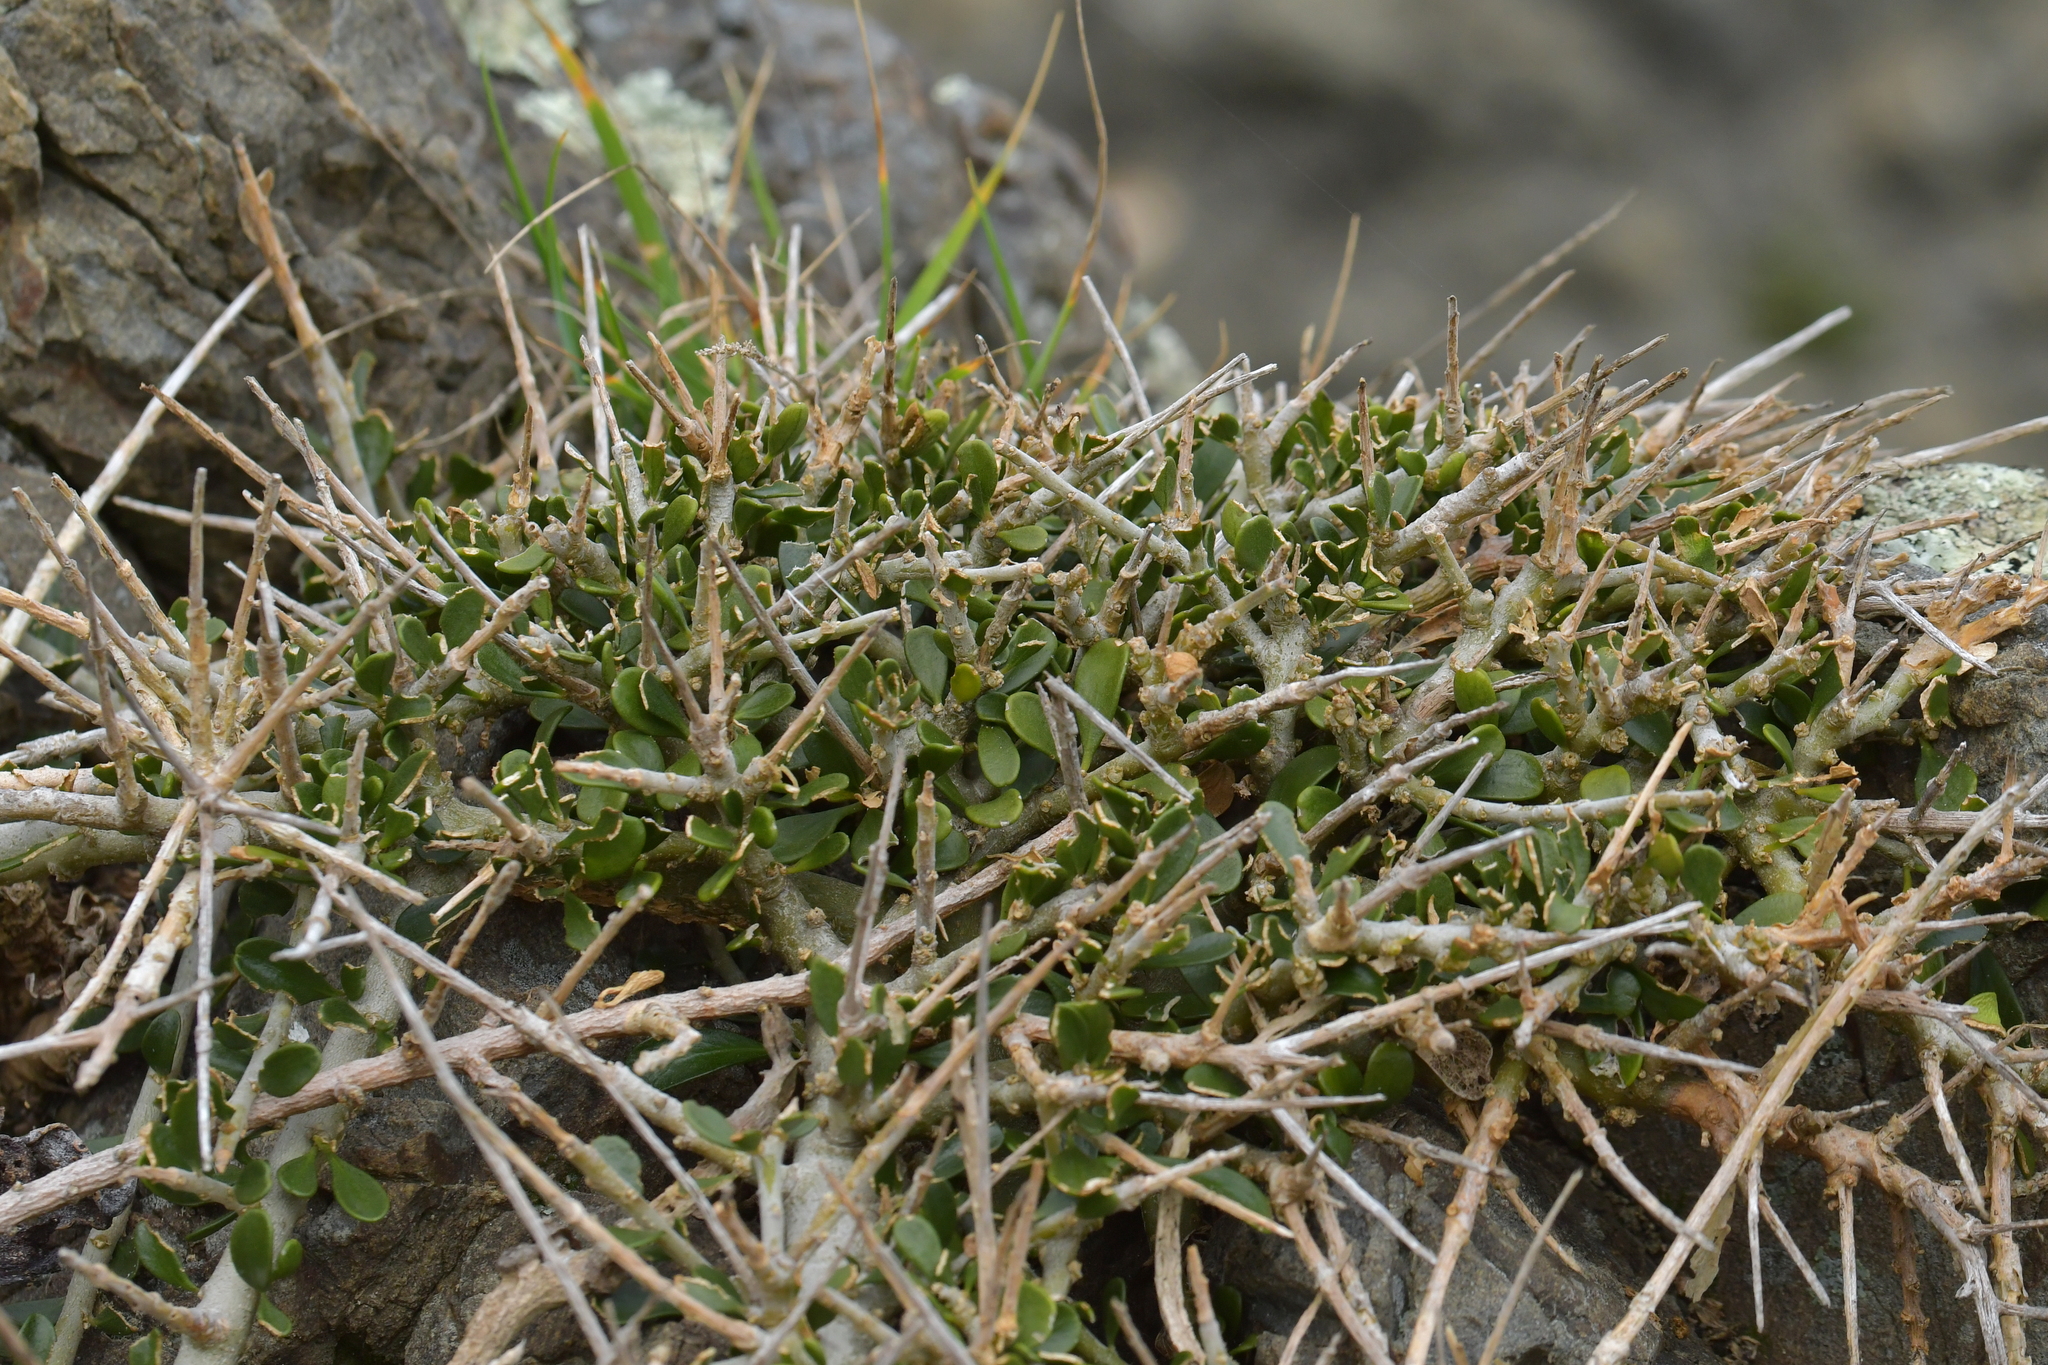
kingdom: Plantae
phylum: Tracheophyta
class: Magnoliopsida
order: Malpighiales
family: Violaceae
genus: Melicytus
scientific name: Melicytus crassifolius
